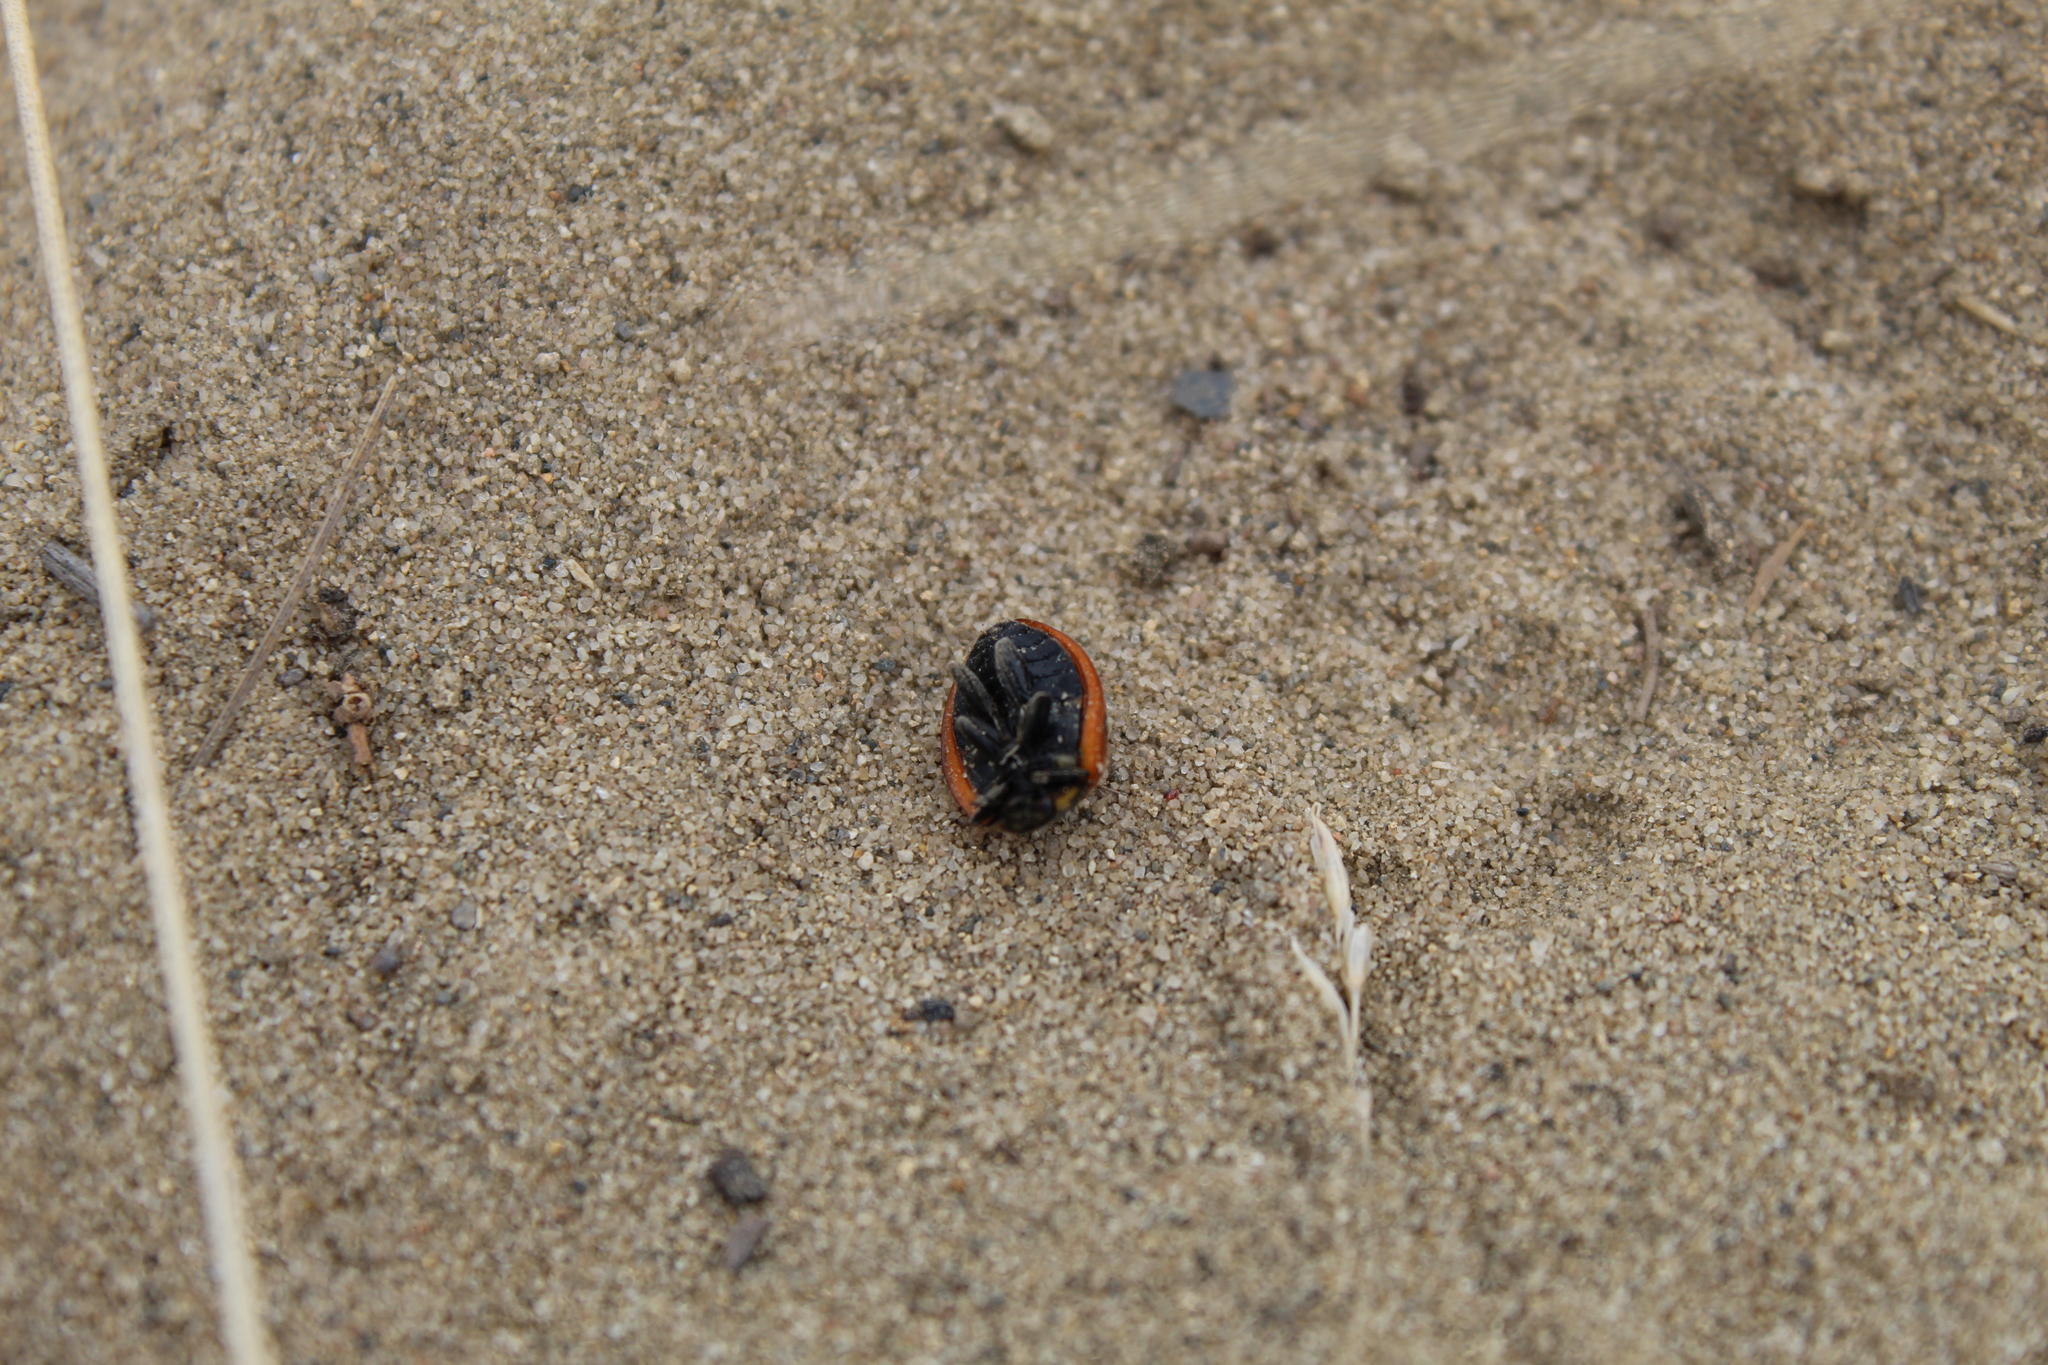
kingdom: Animalia
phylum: Arthropoda
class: Insecta
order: Coleoptera
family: Coccinellidae
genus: Coccinella
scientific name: Coccinella septempunctata
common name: Sevenspotted lady beetle
